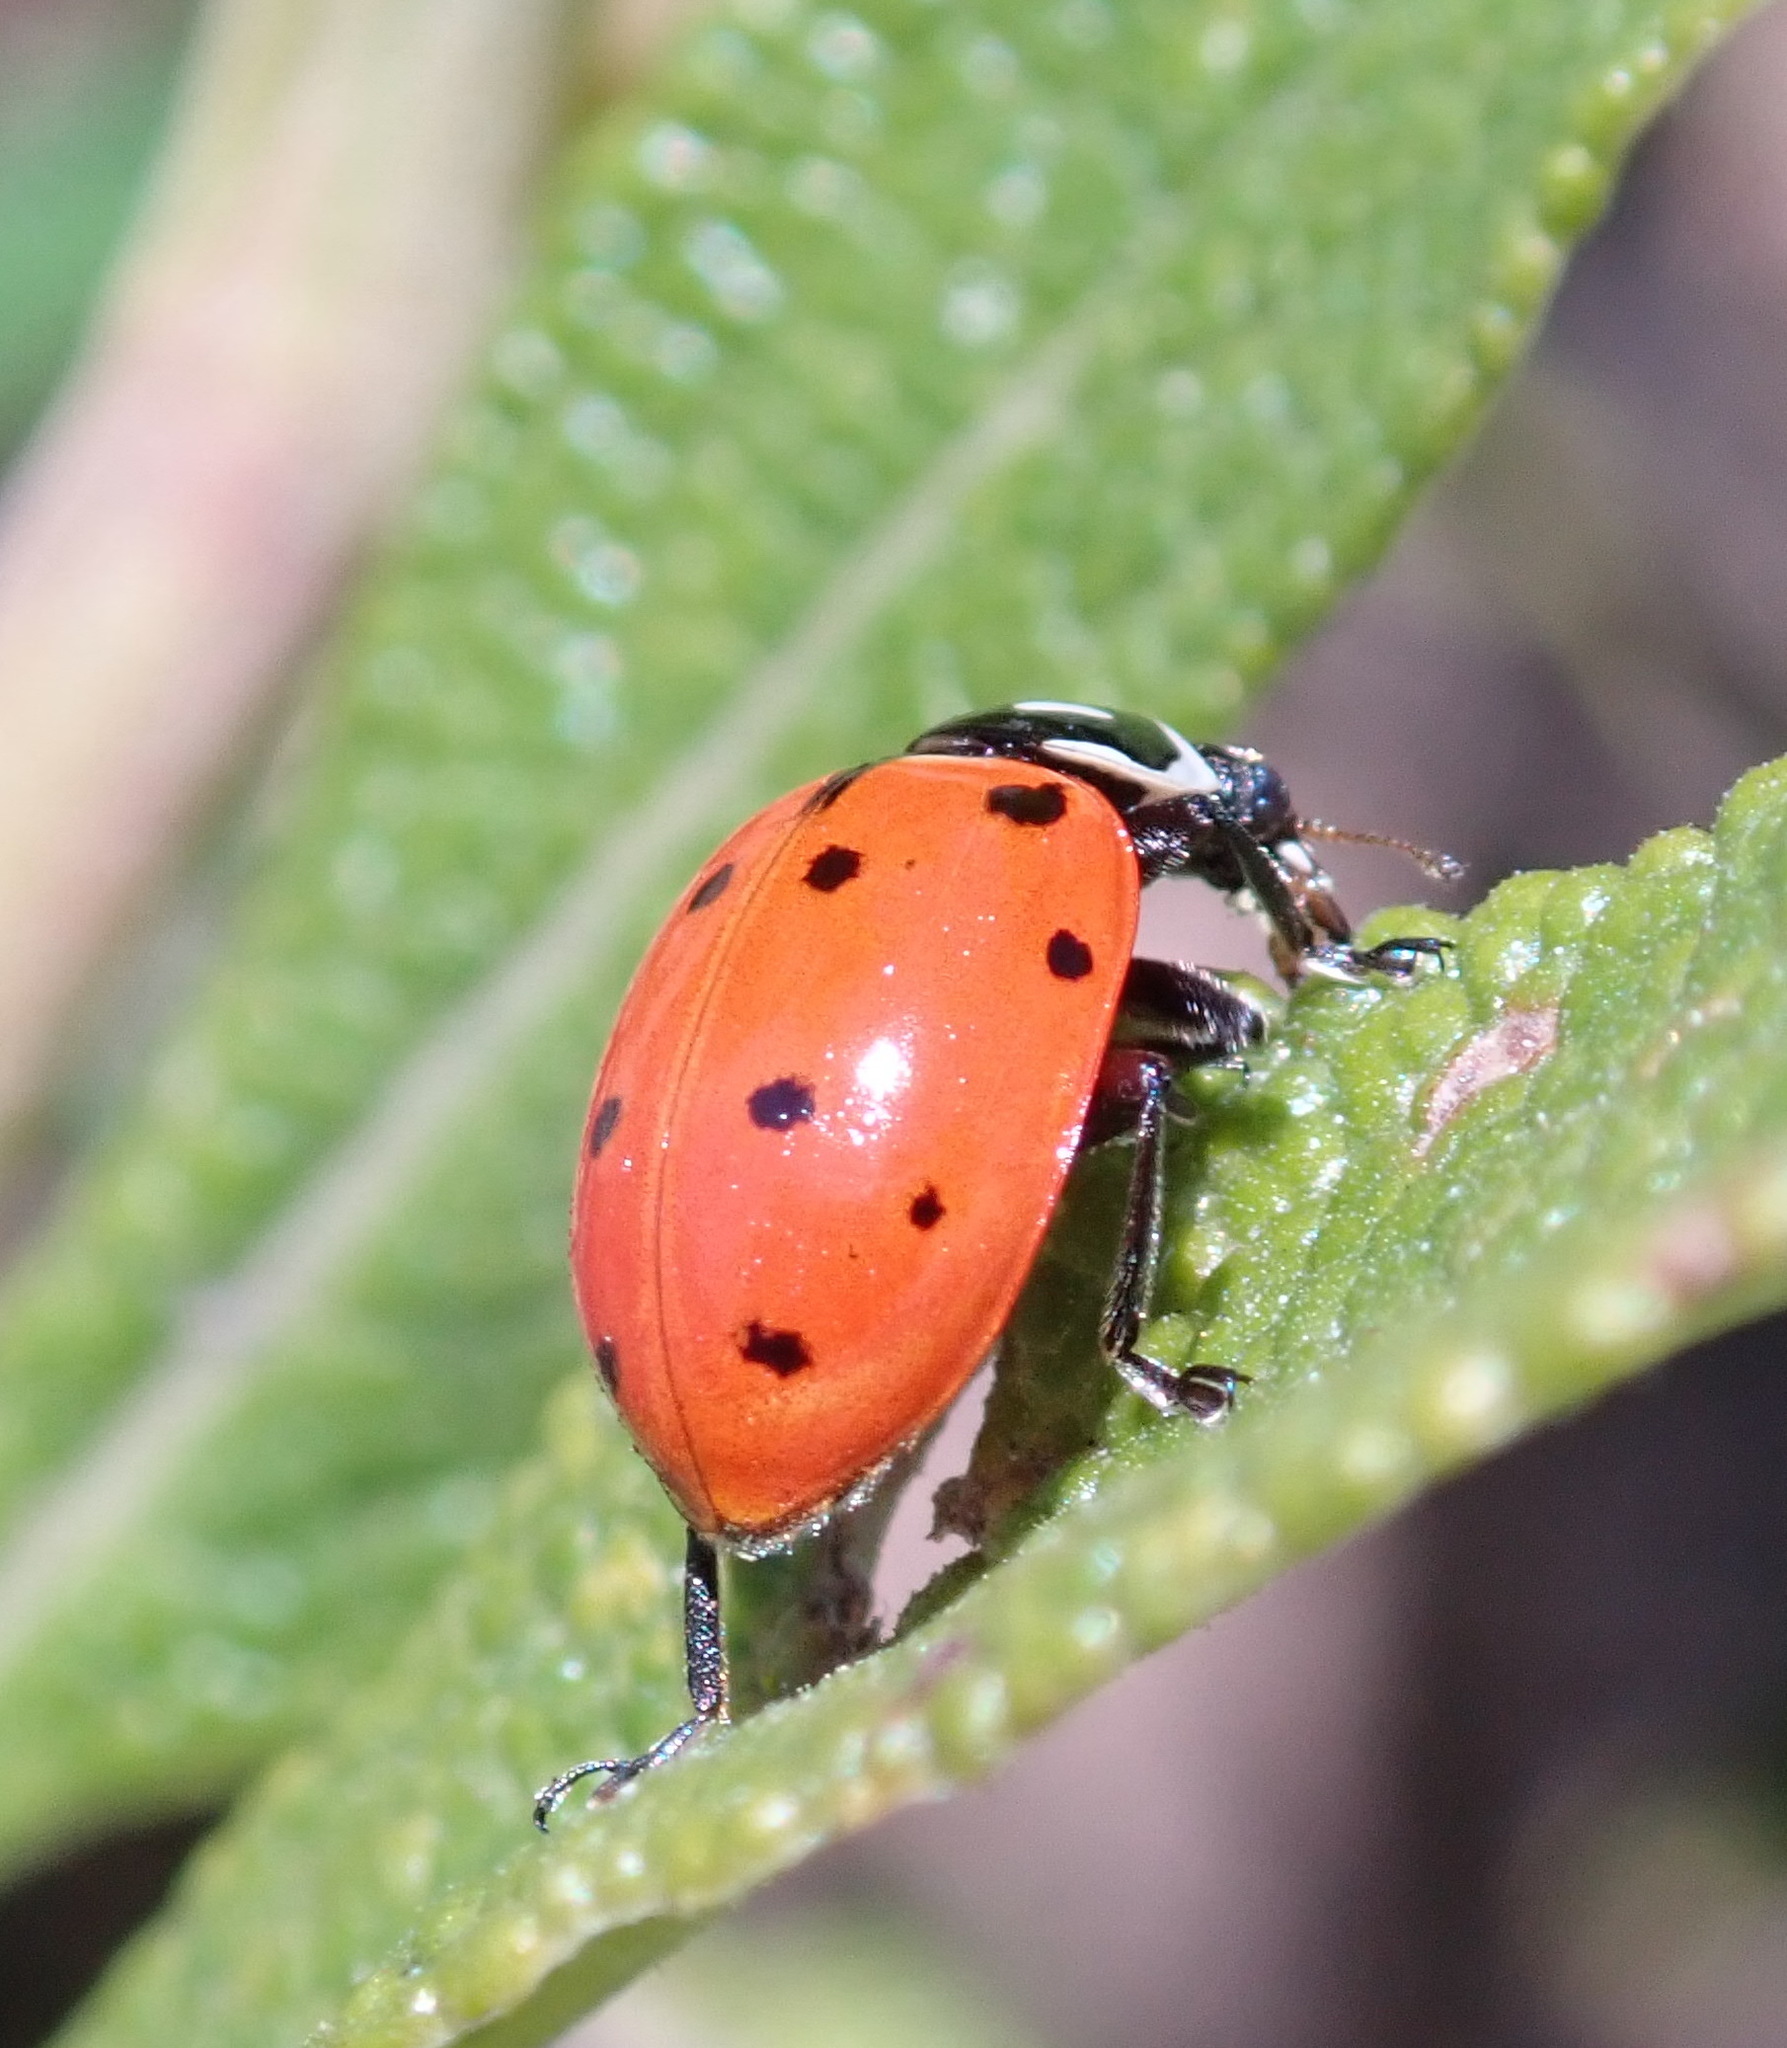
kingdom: Animalia
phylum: Arthropoda
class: Insecta
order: Coleoptera
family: Coccinellidae
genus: Hippodamia
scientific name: Hippodamia convergens
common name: Convergent lady beetle
